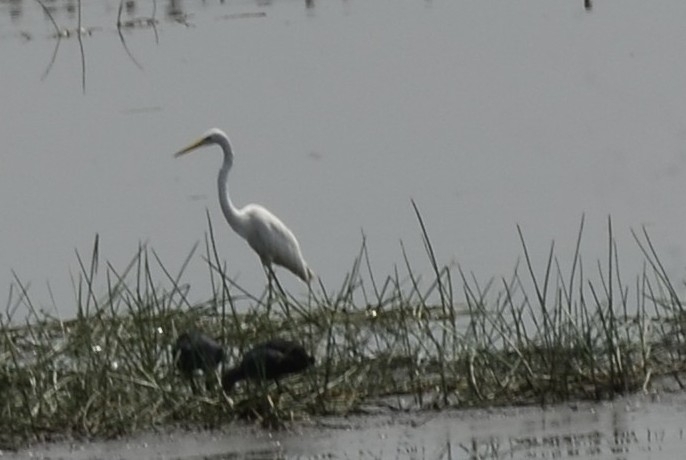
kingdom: Animalia
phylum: Chordata
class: Aves
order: Pelecaniformes
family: Ardeidae
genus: Ardea
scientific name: Ardea alba
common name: Great egret
